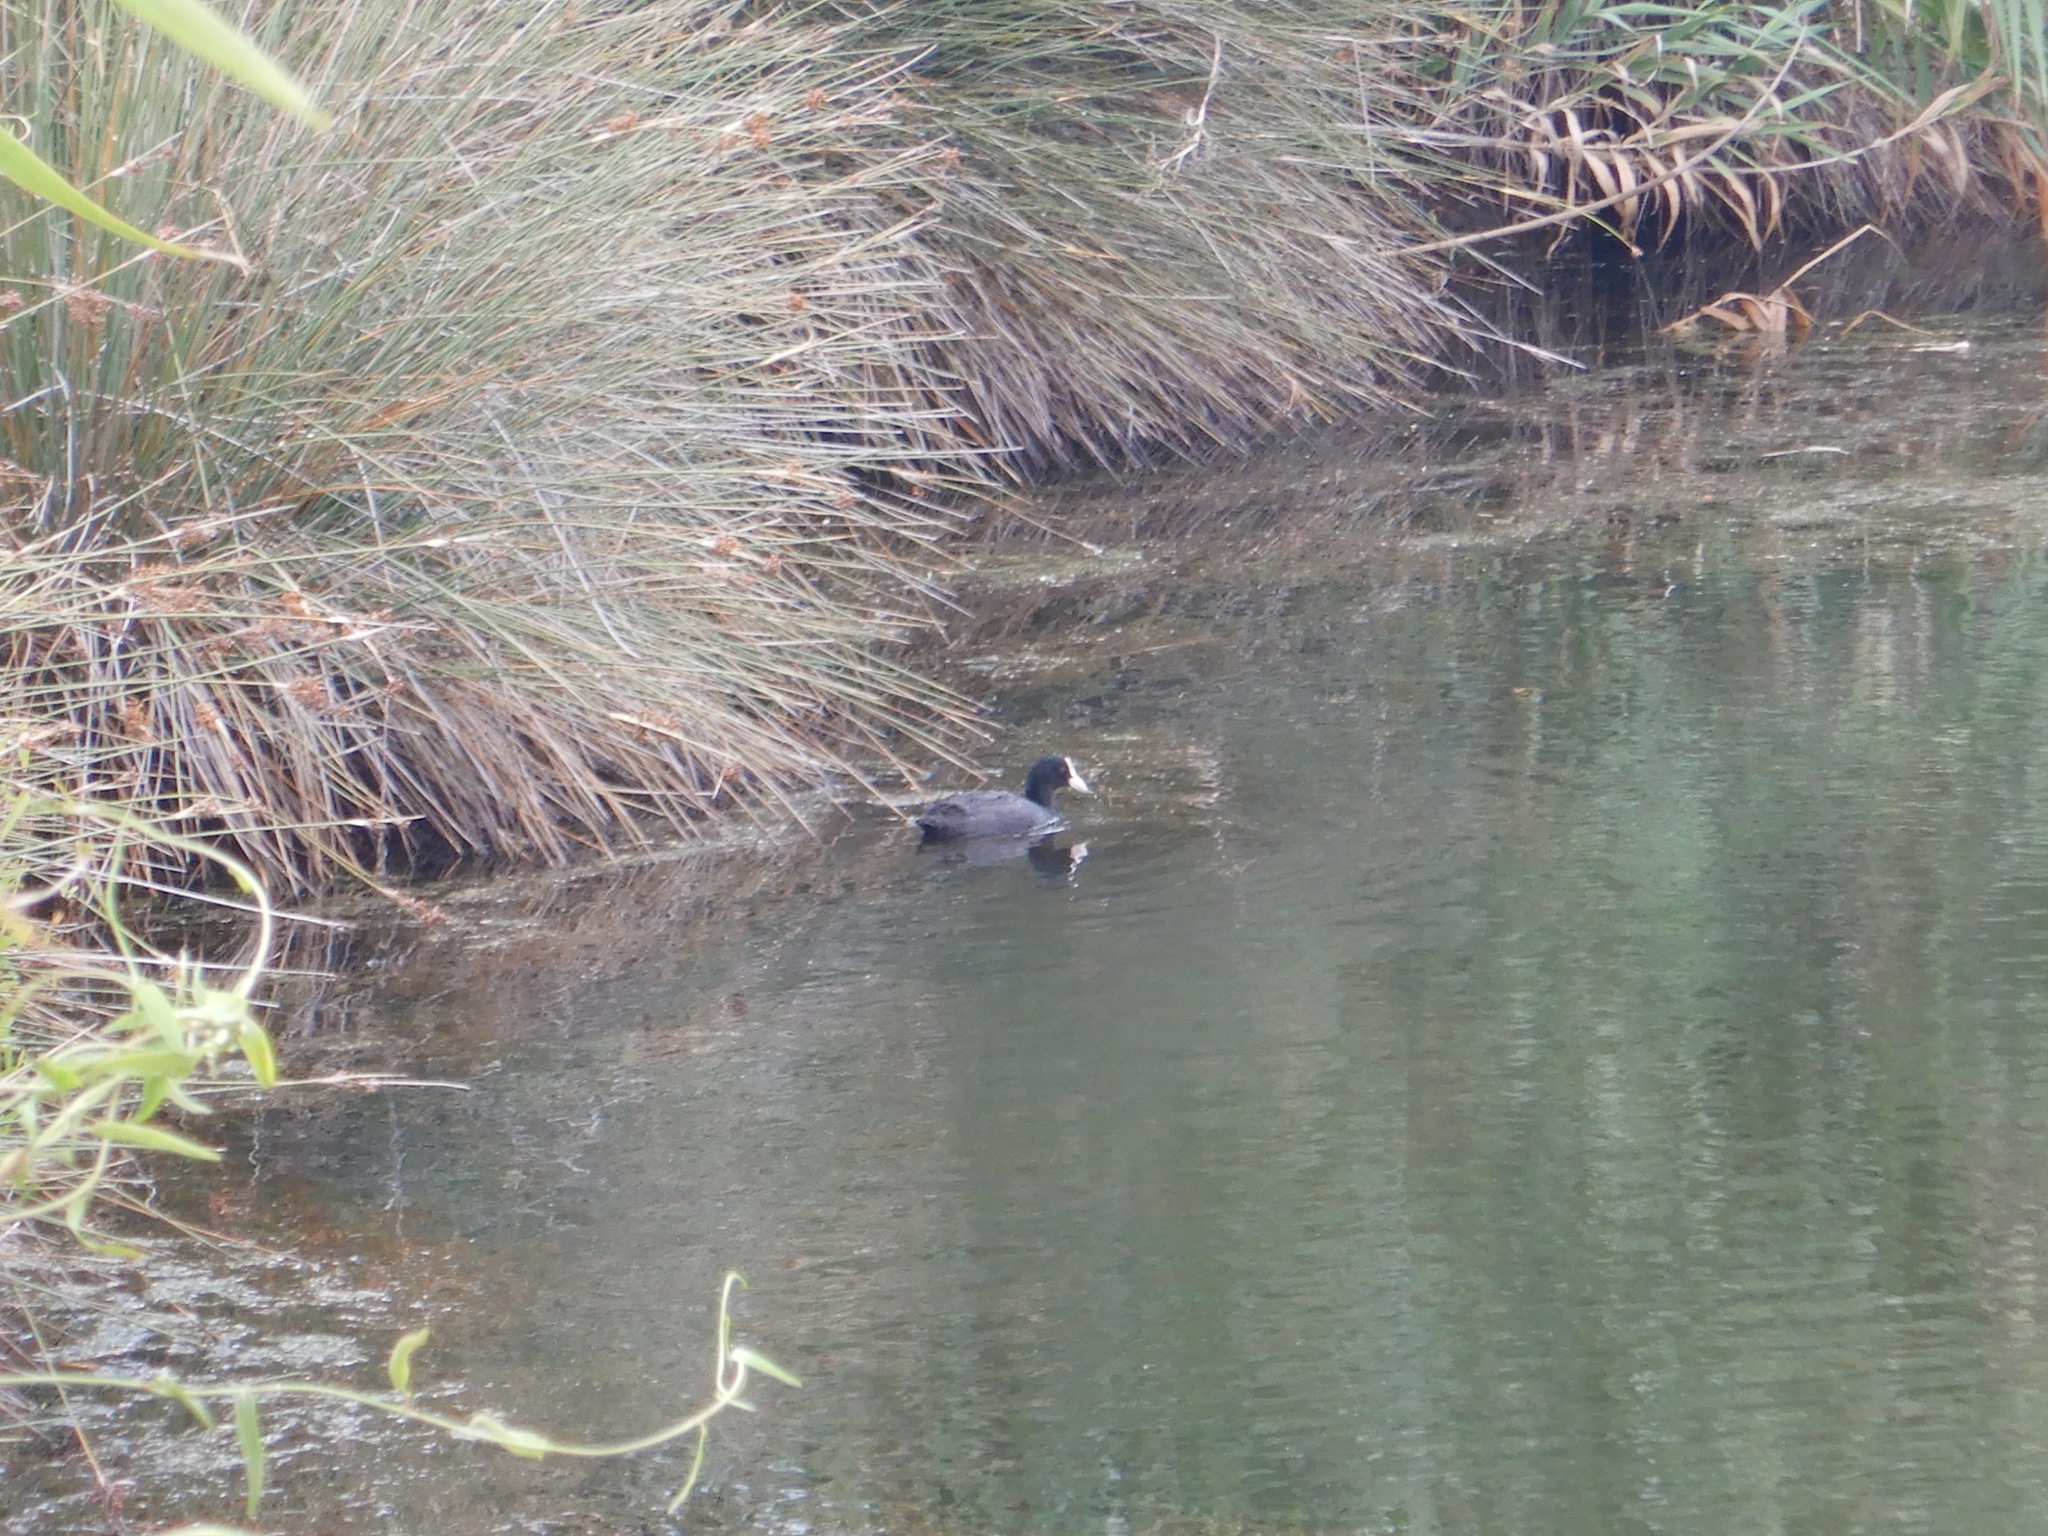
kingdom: Animalia
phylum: Chordata
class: Aves
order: Gruiformes
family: Rallidae
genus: Fulica
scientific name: Fulica atra
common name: Eurasian coot
